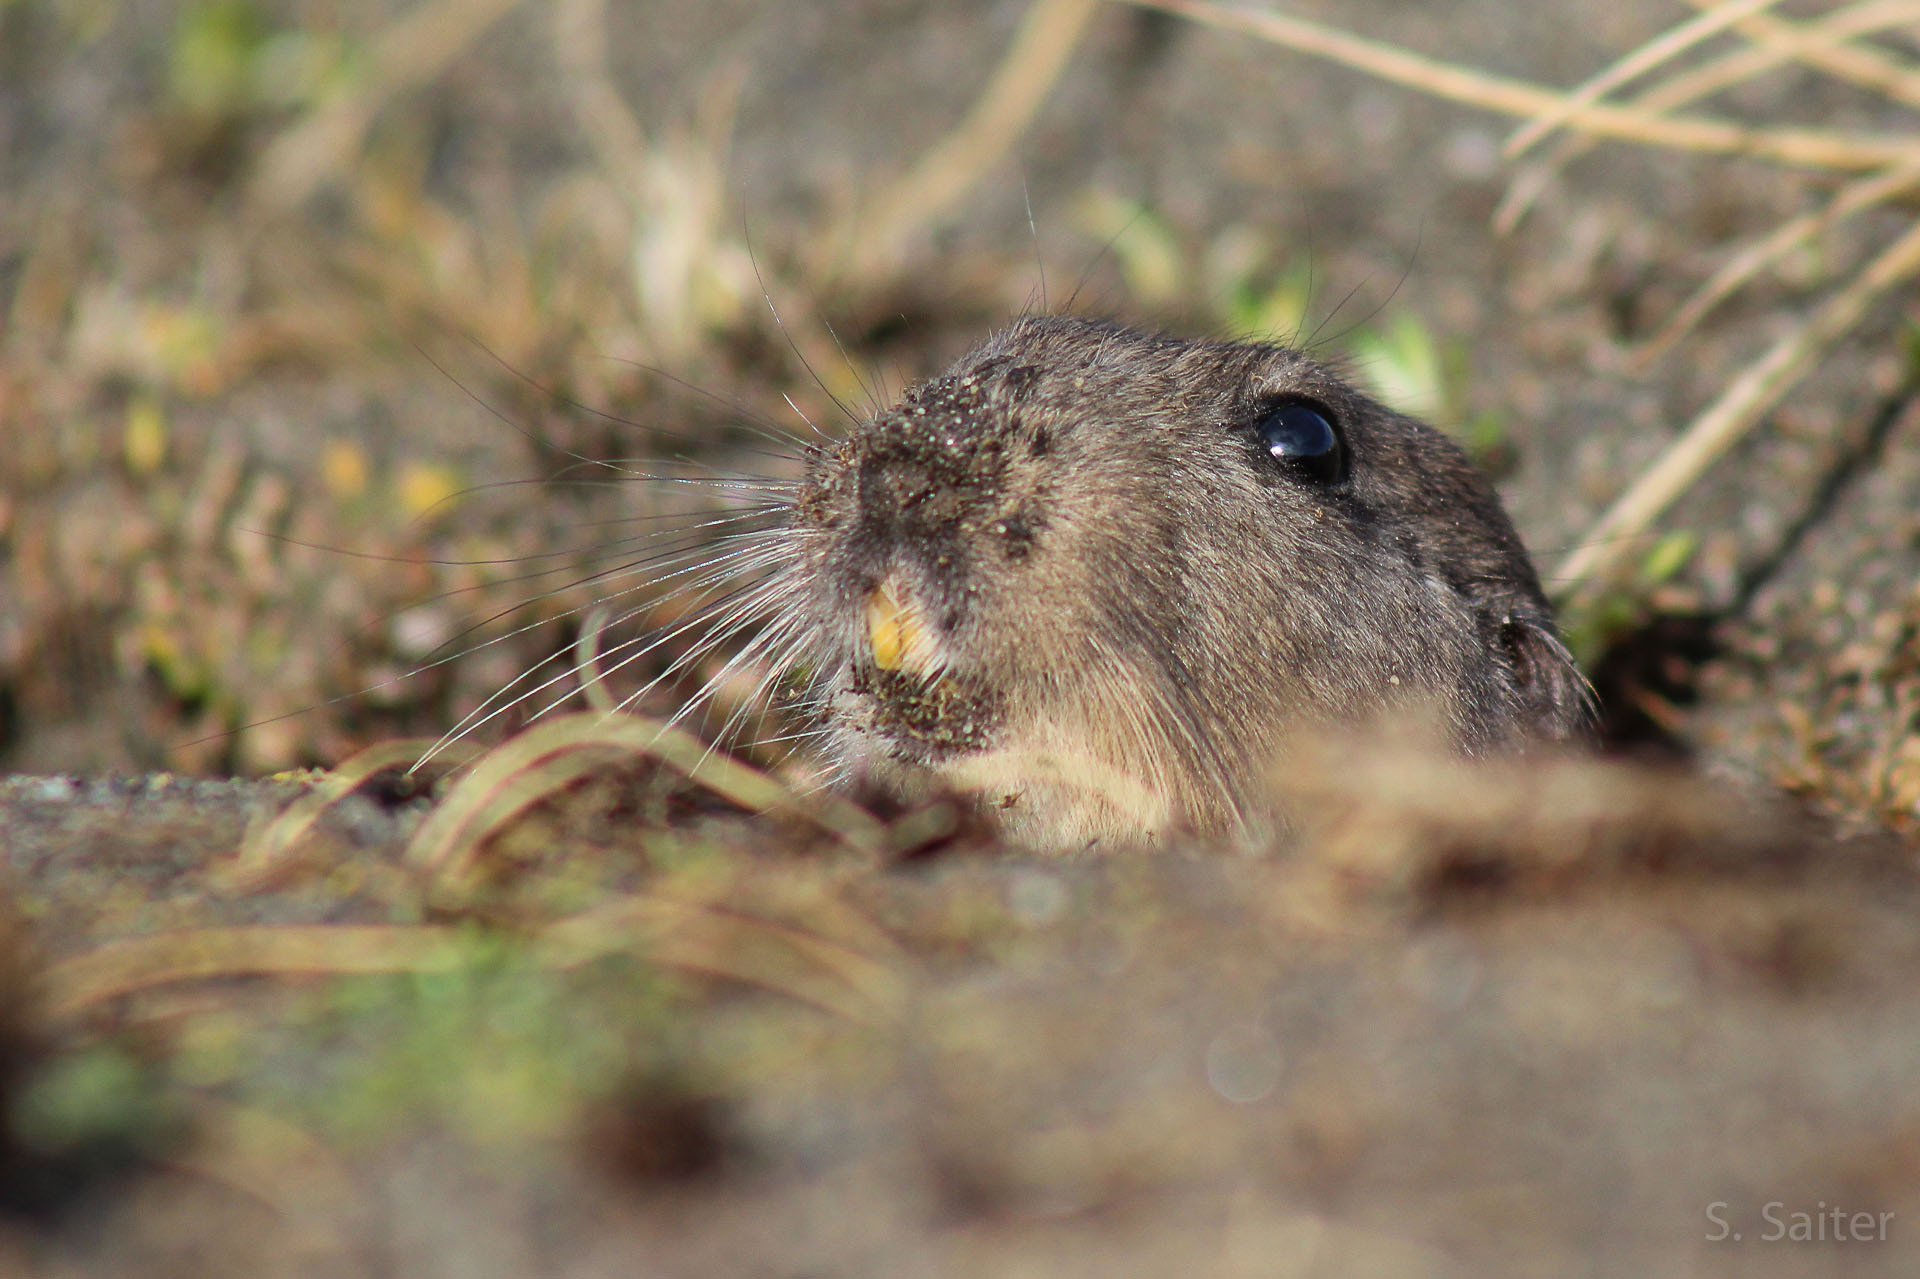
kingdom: Animalia
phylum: Chordata
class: Mammalia
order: Rodentia
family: Ctenomyidae
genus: Ctenomys
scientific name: Ctenomys magellanicus
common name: Magellanic tuco-tuco
